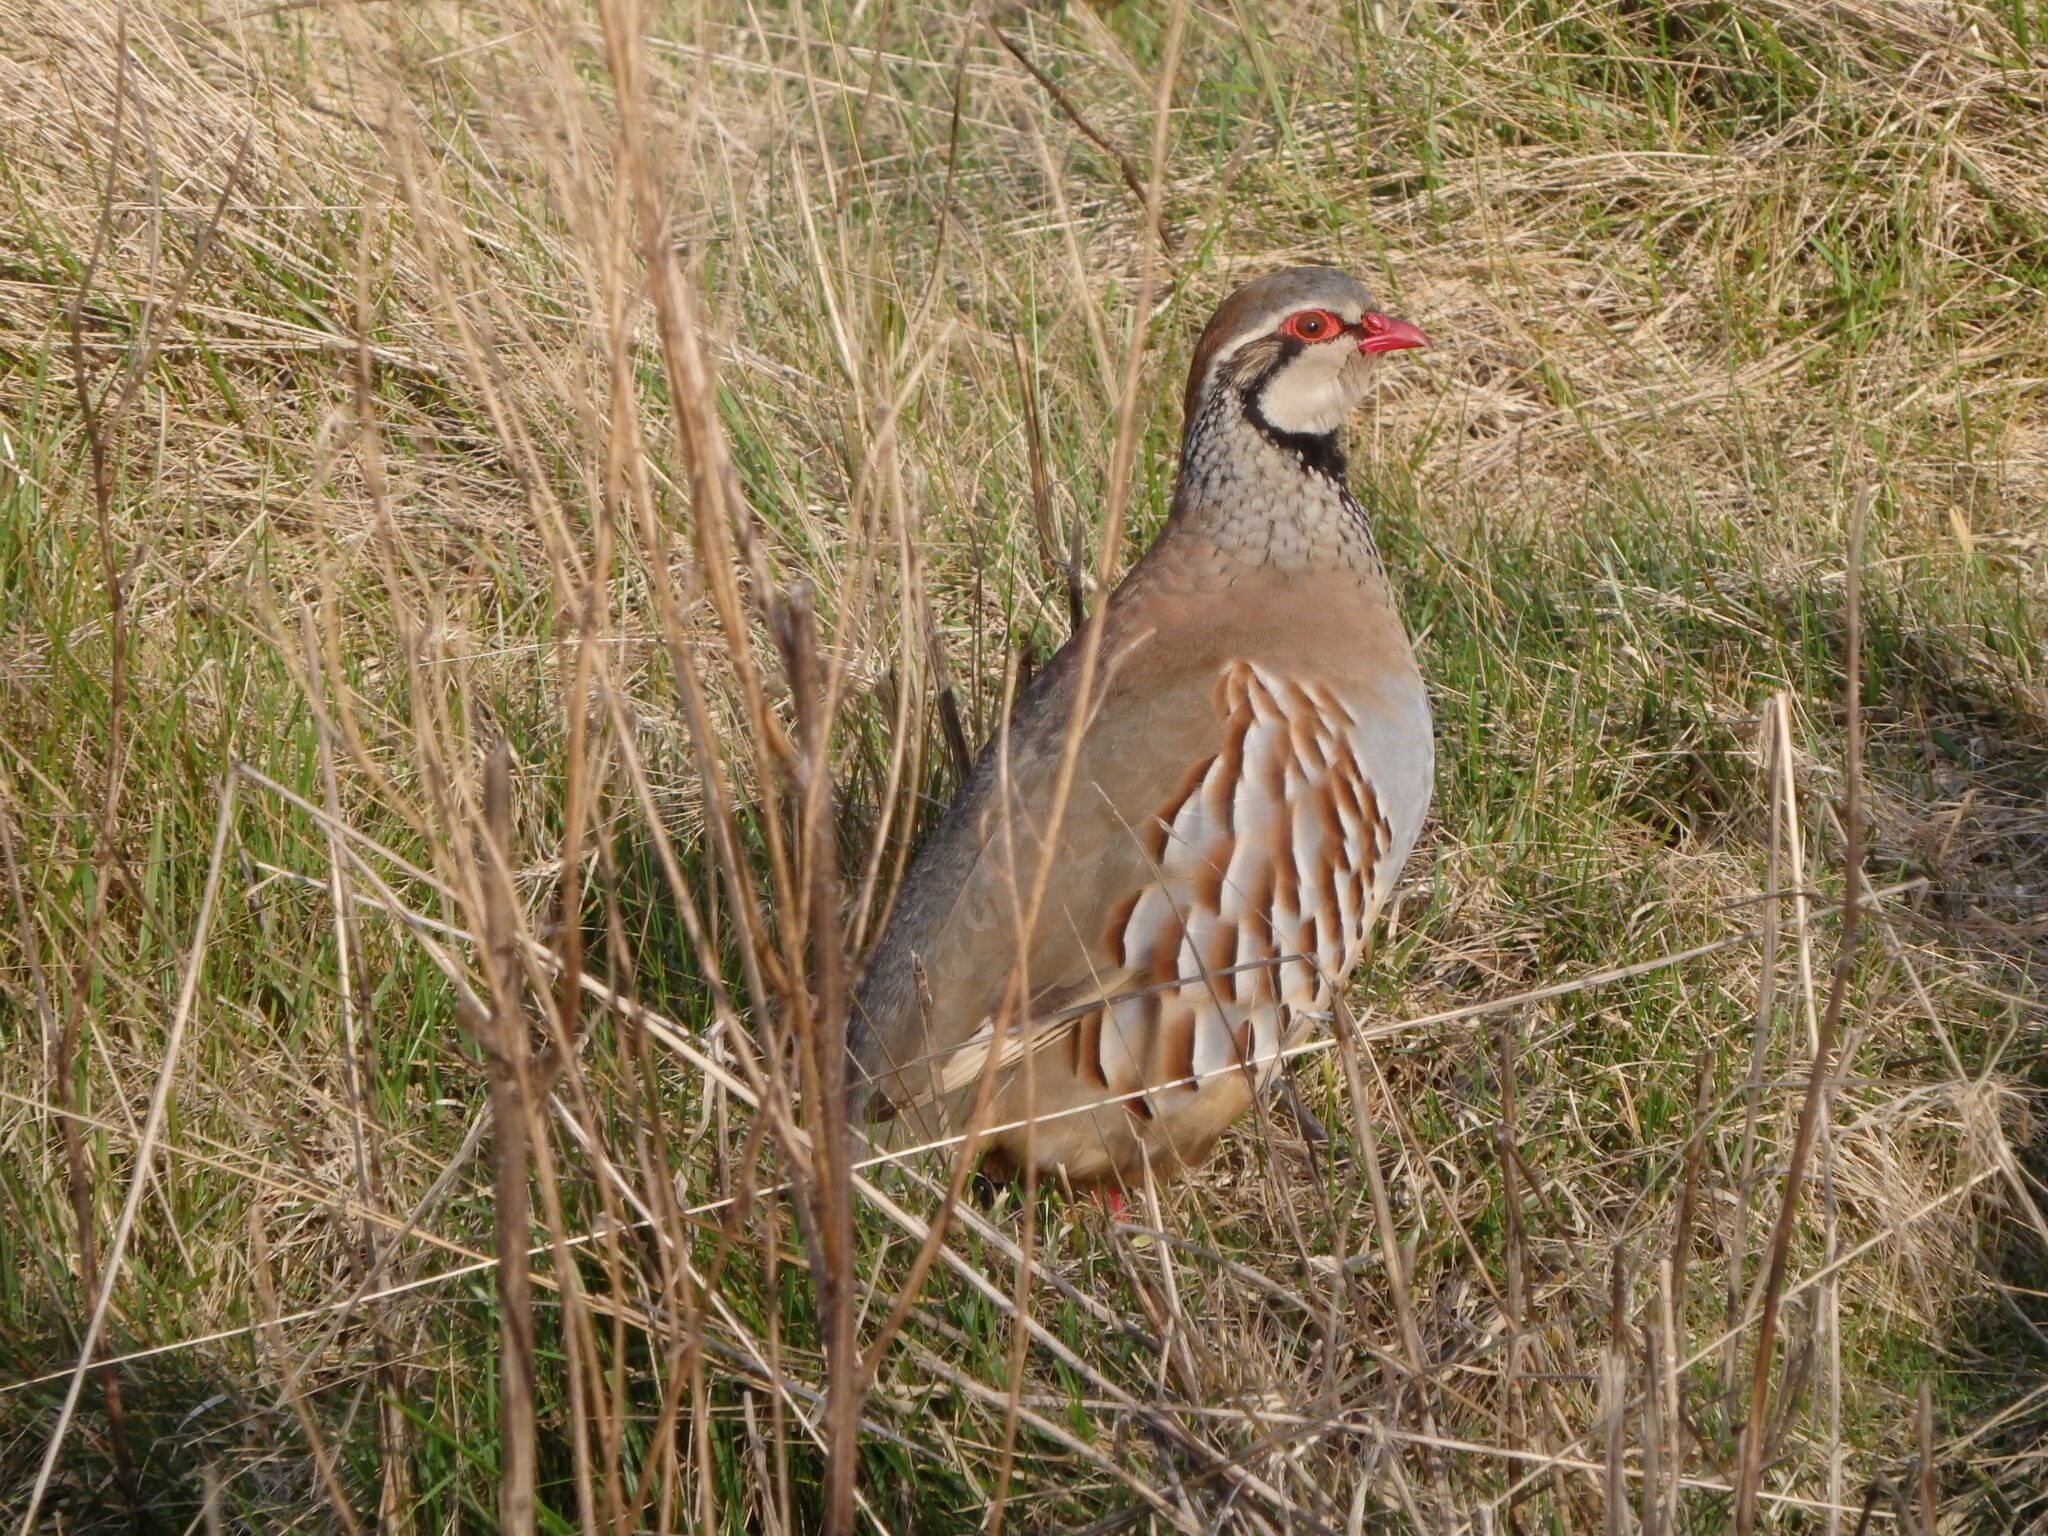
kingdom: Animalia
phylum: Chordata
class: Aves
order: Galliformes
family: Phasianidae
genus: Alectoris
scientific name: Alectoris rufa
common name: Red-legged partridge
